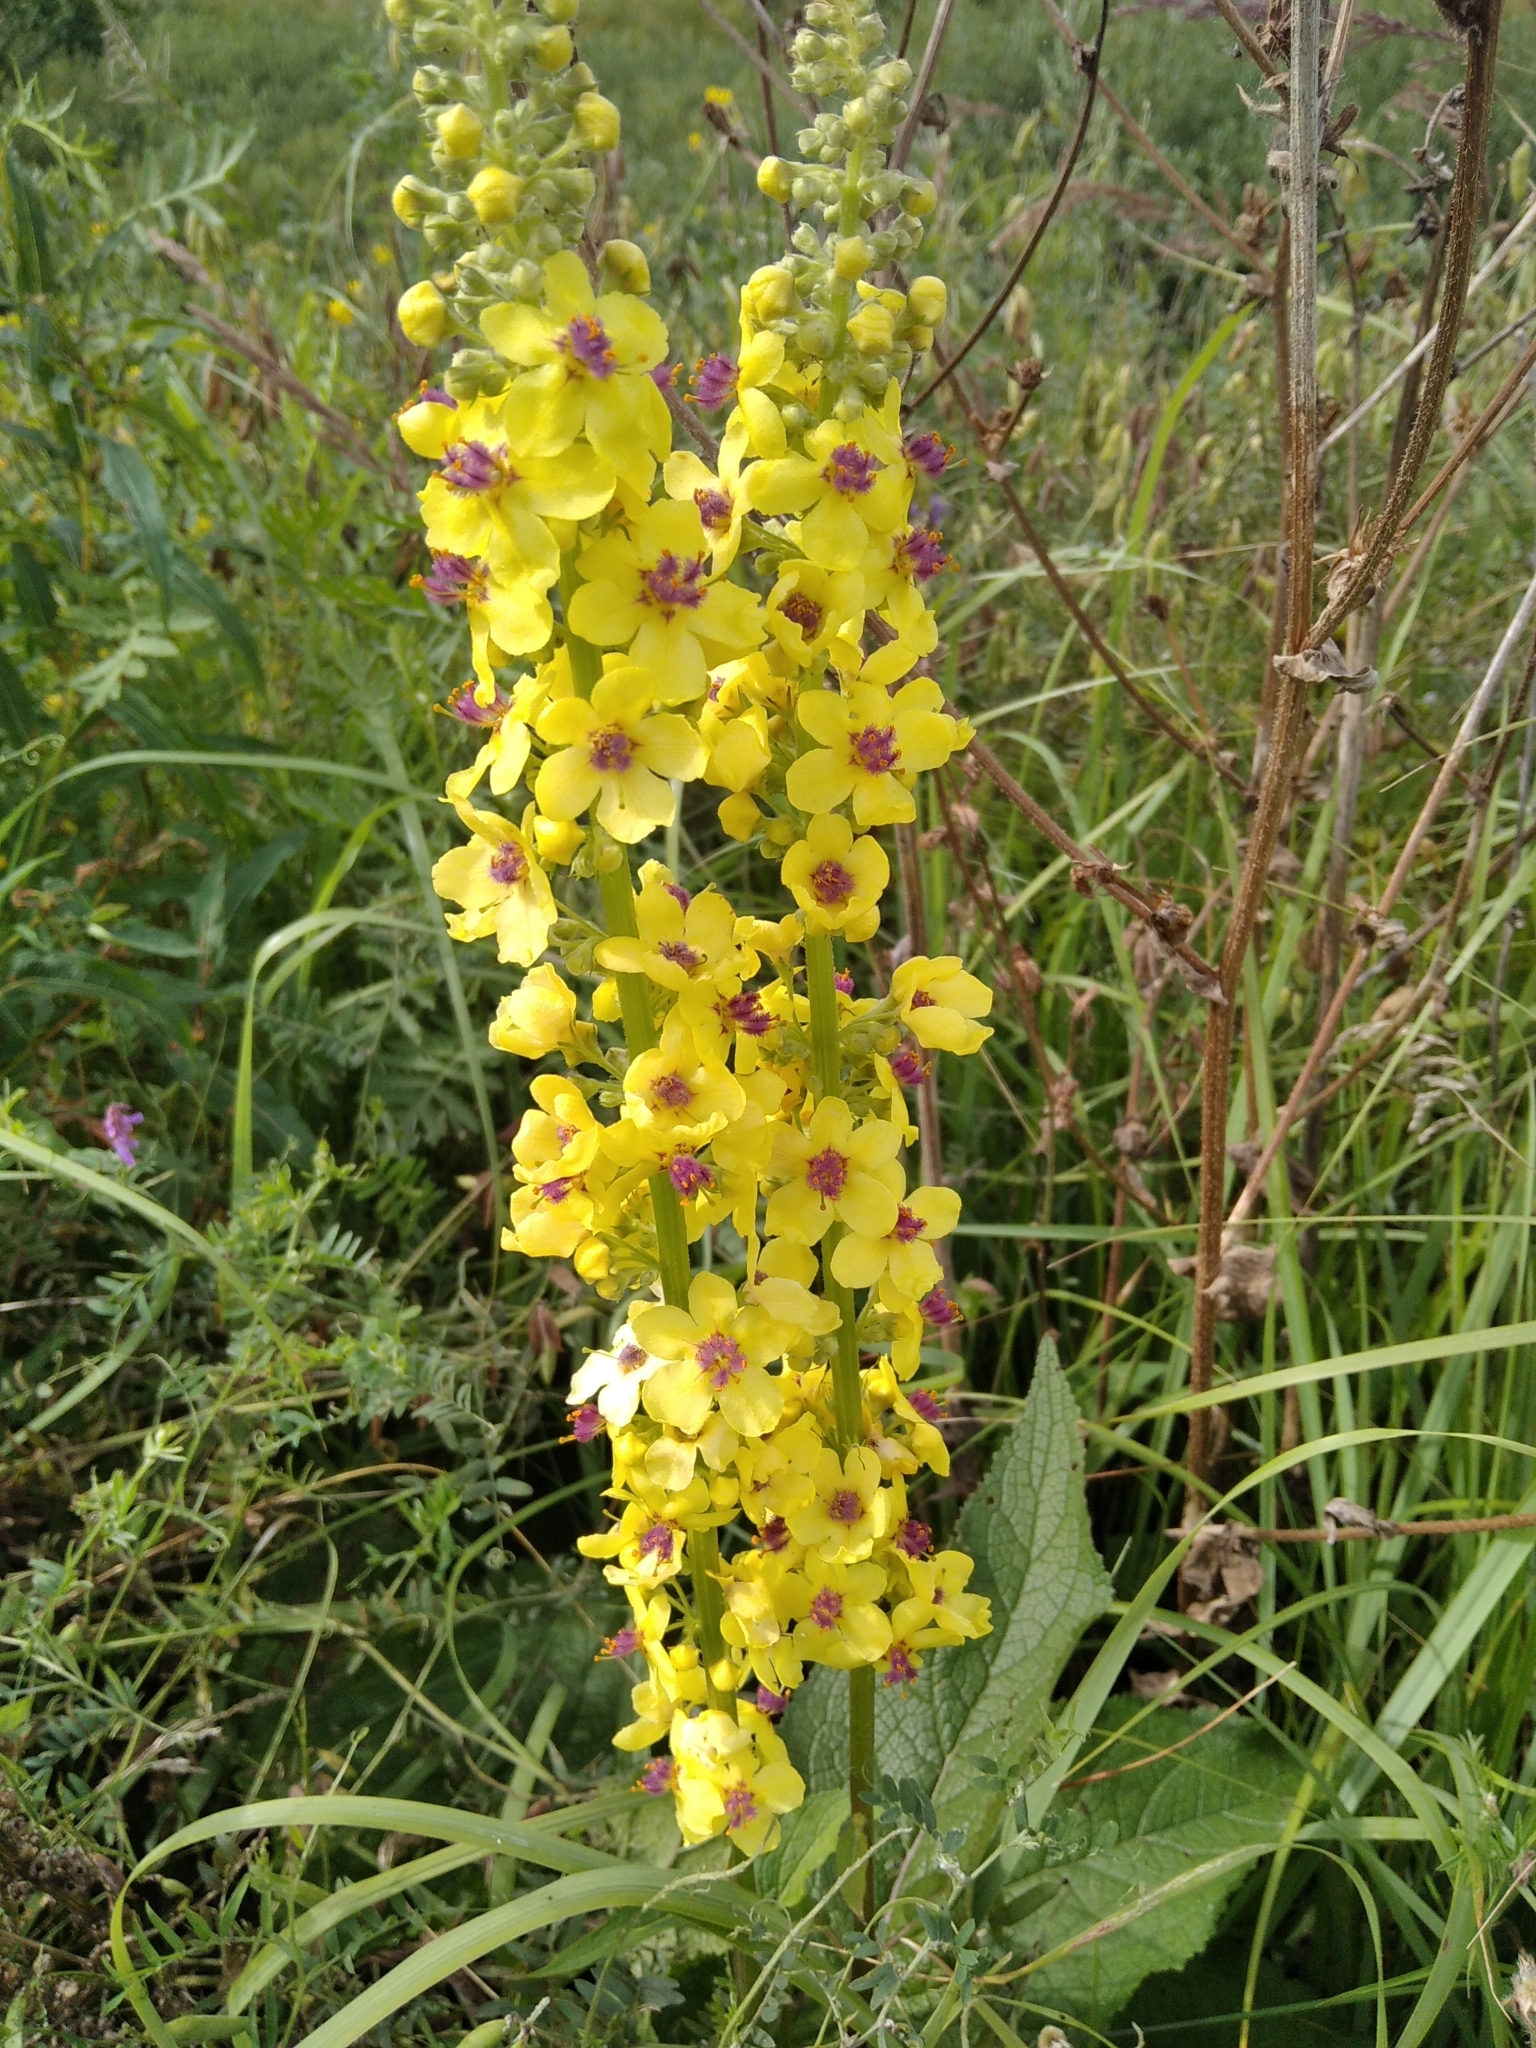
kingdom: Plantae
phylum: Tracheophyta
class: Magnoliopsida
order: Lamiales
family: Scrophulariaceae
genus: Verbascum
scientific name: Verbascum nigrum
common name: Dark mullein
